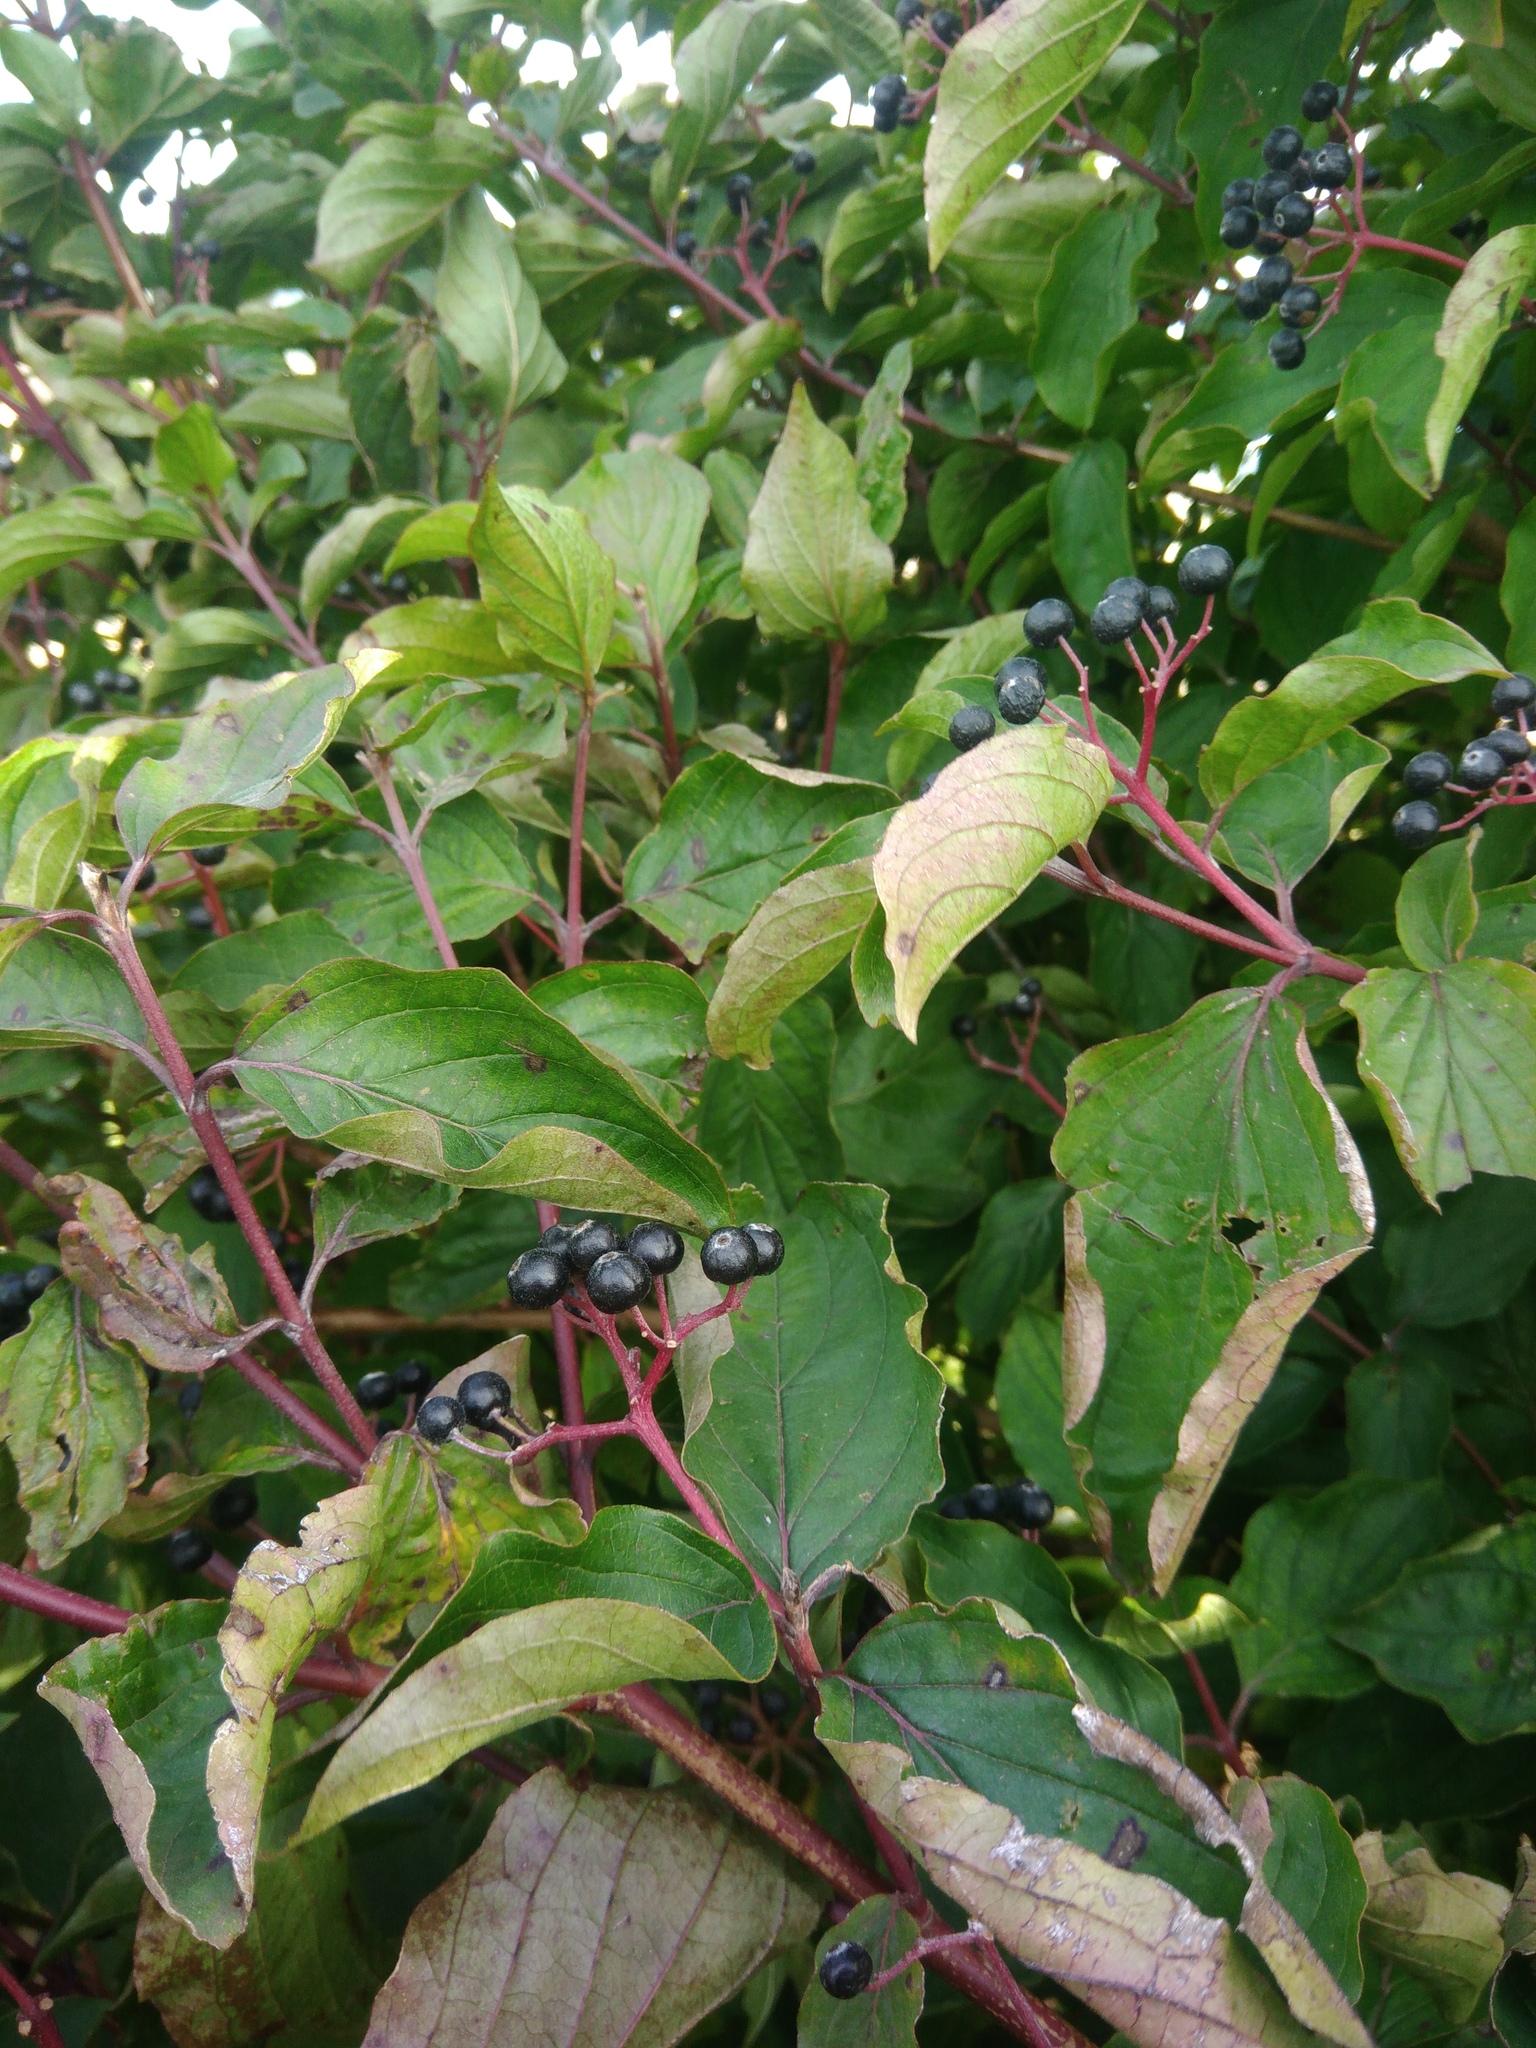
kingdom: Plantae
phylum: Tracheophyta
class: Magnoliopsida
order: Cornales
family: Cornaceae
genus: Cornus
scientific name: Cornus sanguinea
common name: Dogwood
